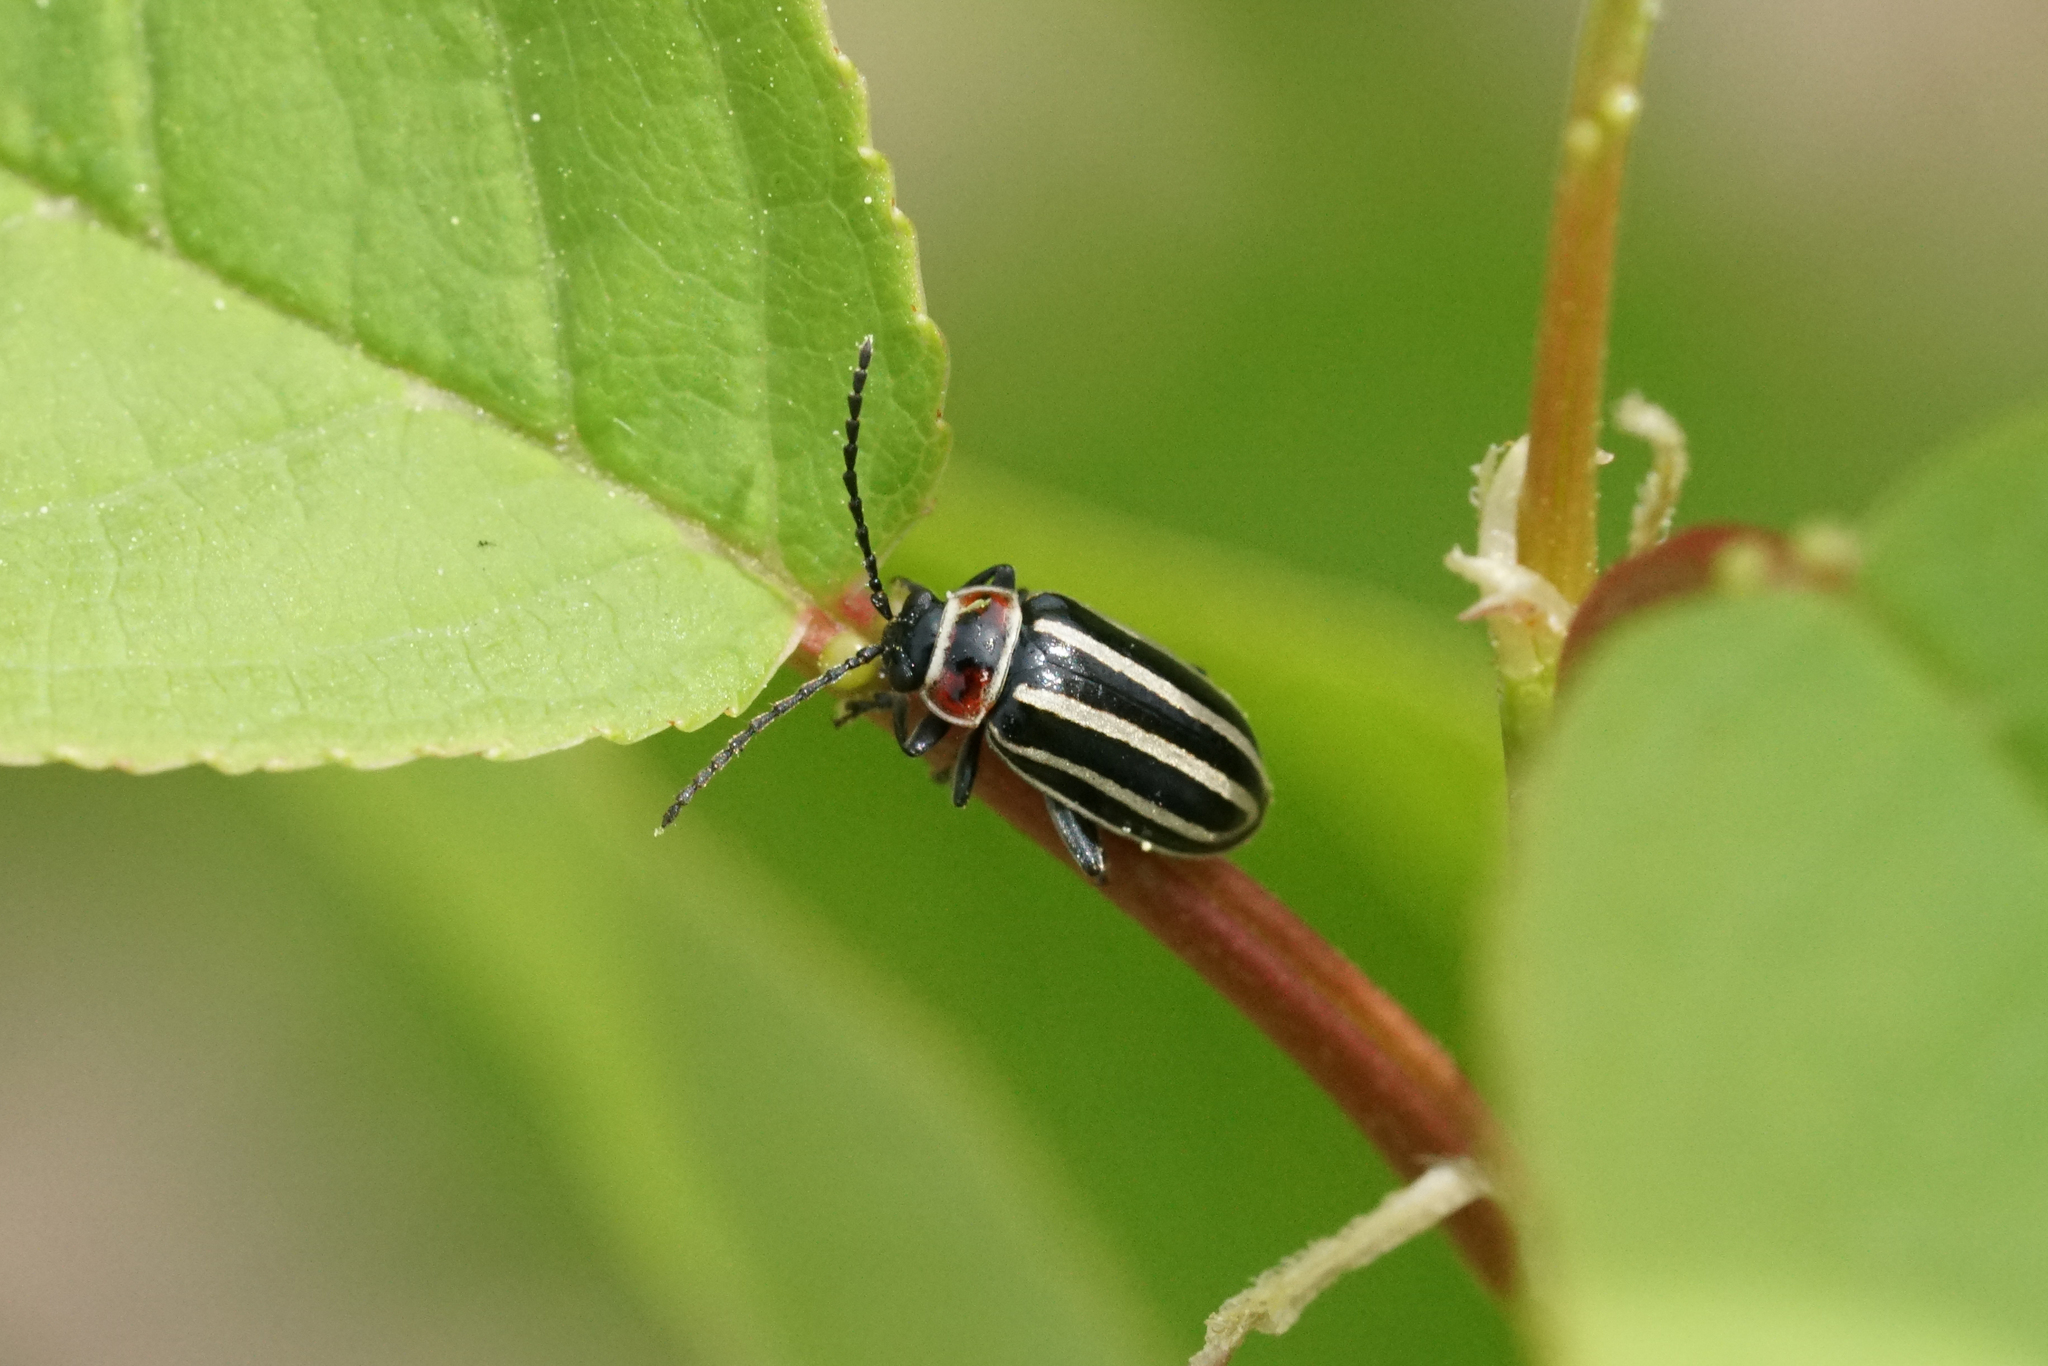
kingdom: Animalia
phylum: Arthropoda
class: Insecta
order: Coleoptera
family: Chrysomelidae
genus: Disonycha
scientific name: Disonycha pensylvanica
